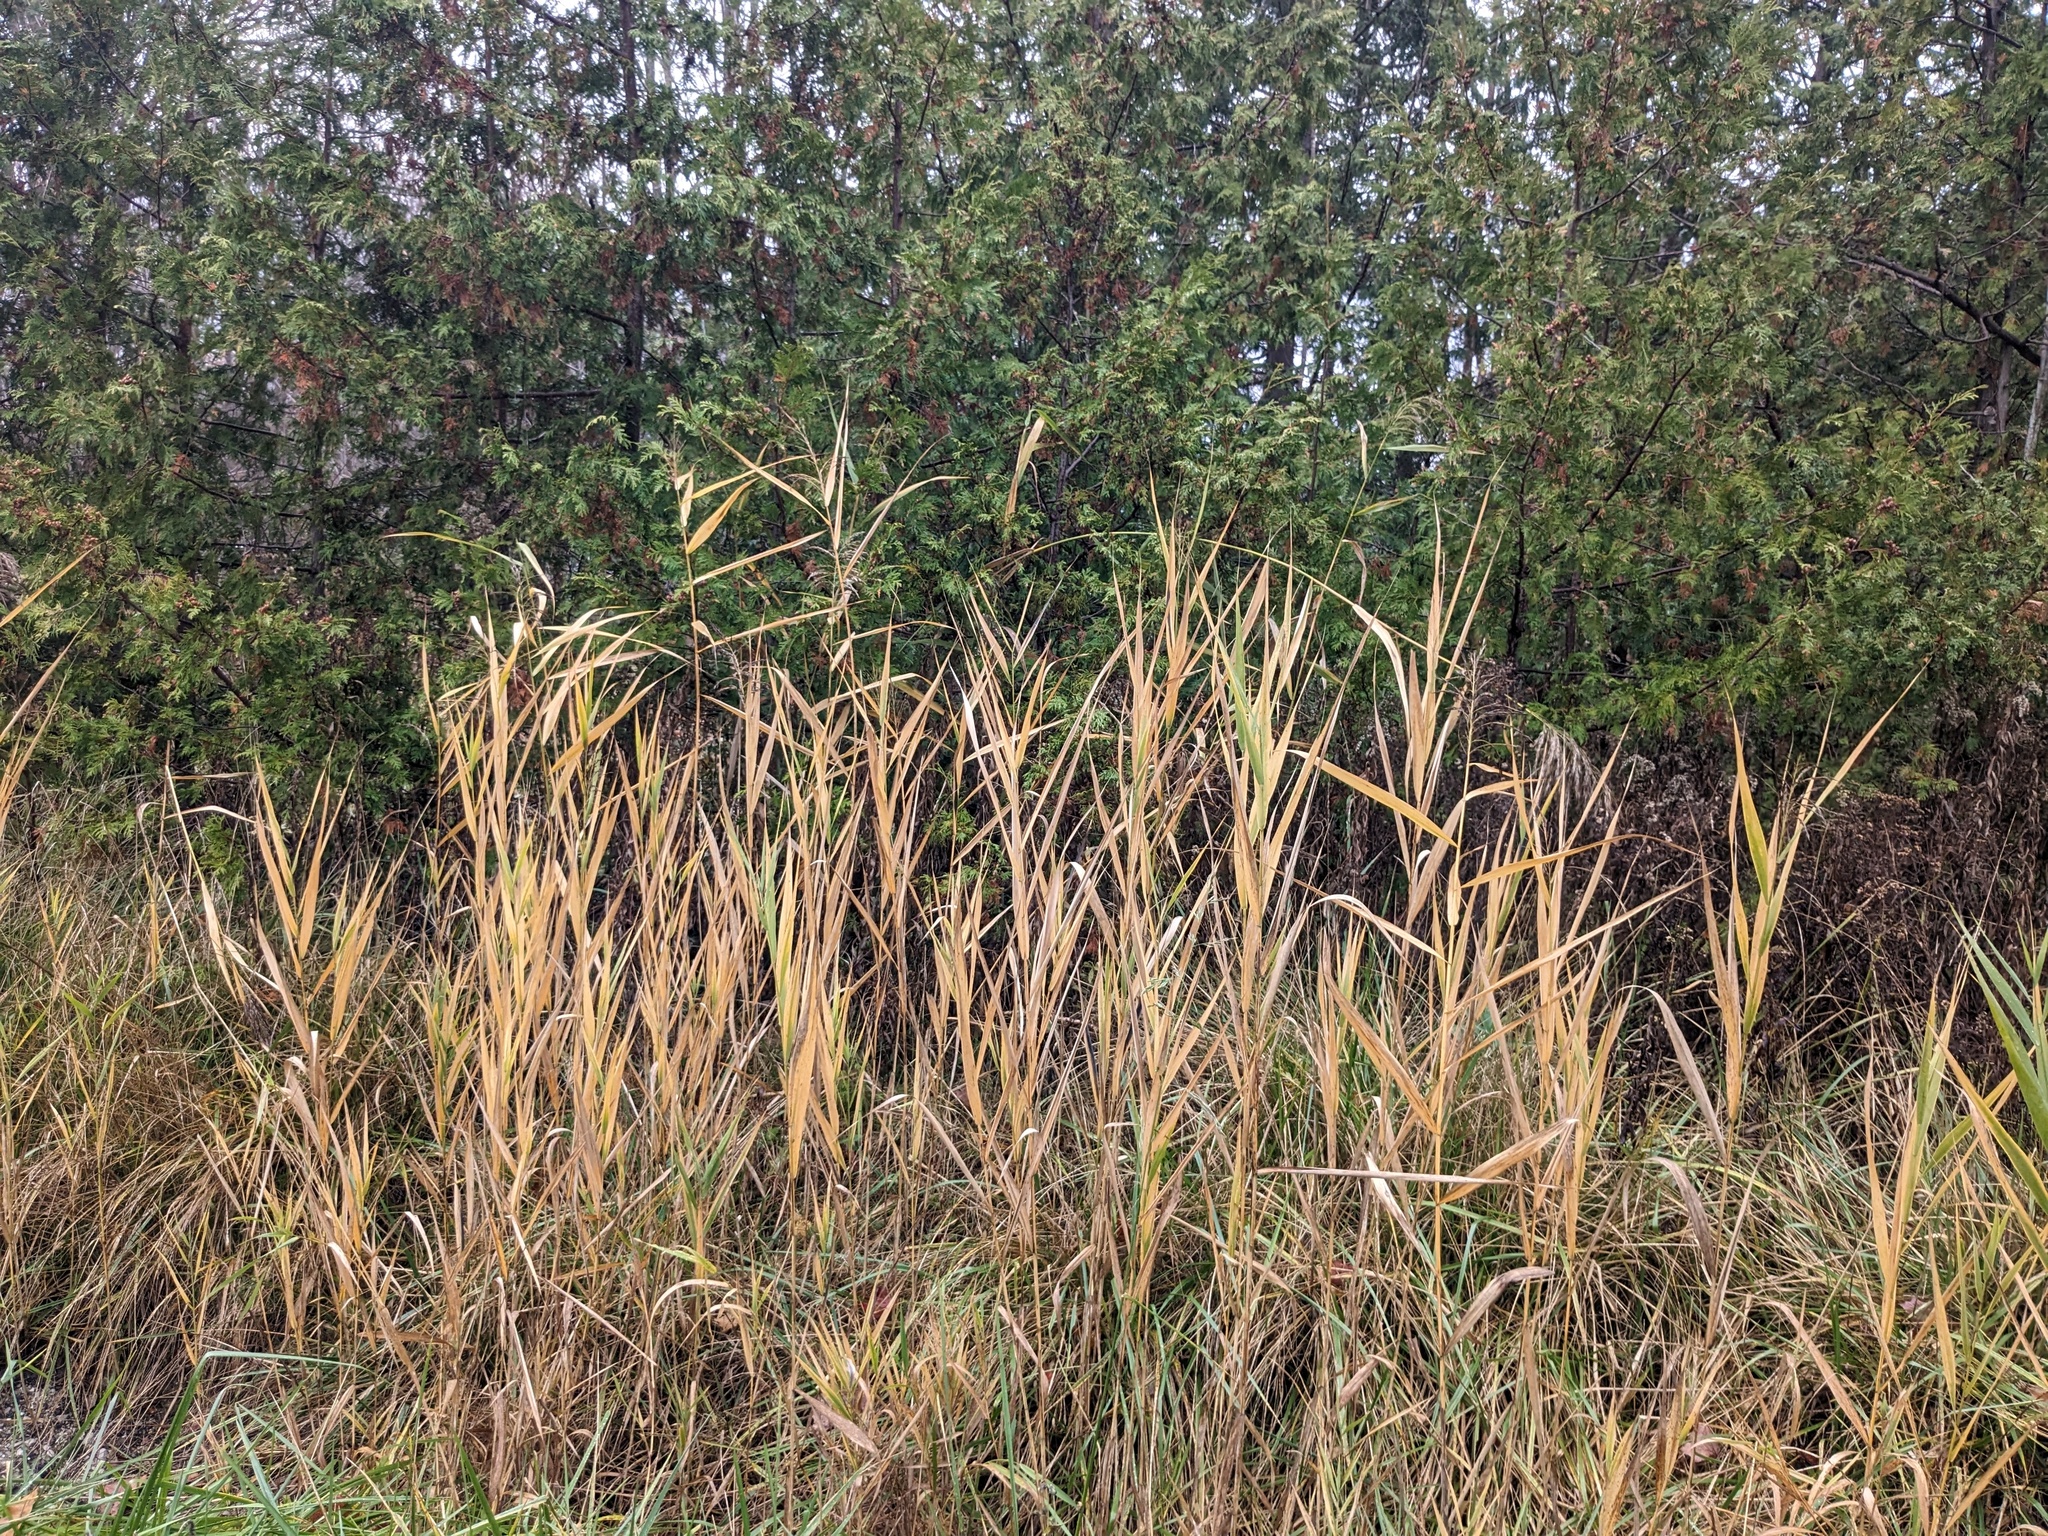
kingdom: Plantae
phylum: Tracheophyta
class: Liliopsida
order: Poales
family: Poaceae
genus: Phragmites
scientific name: Phragmites australis
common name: Common reed
